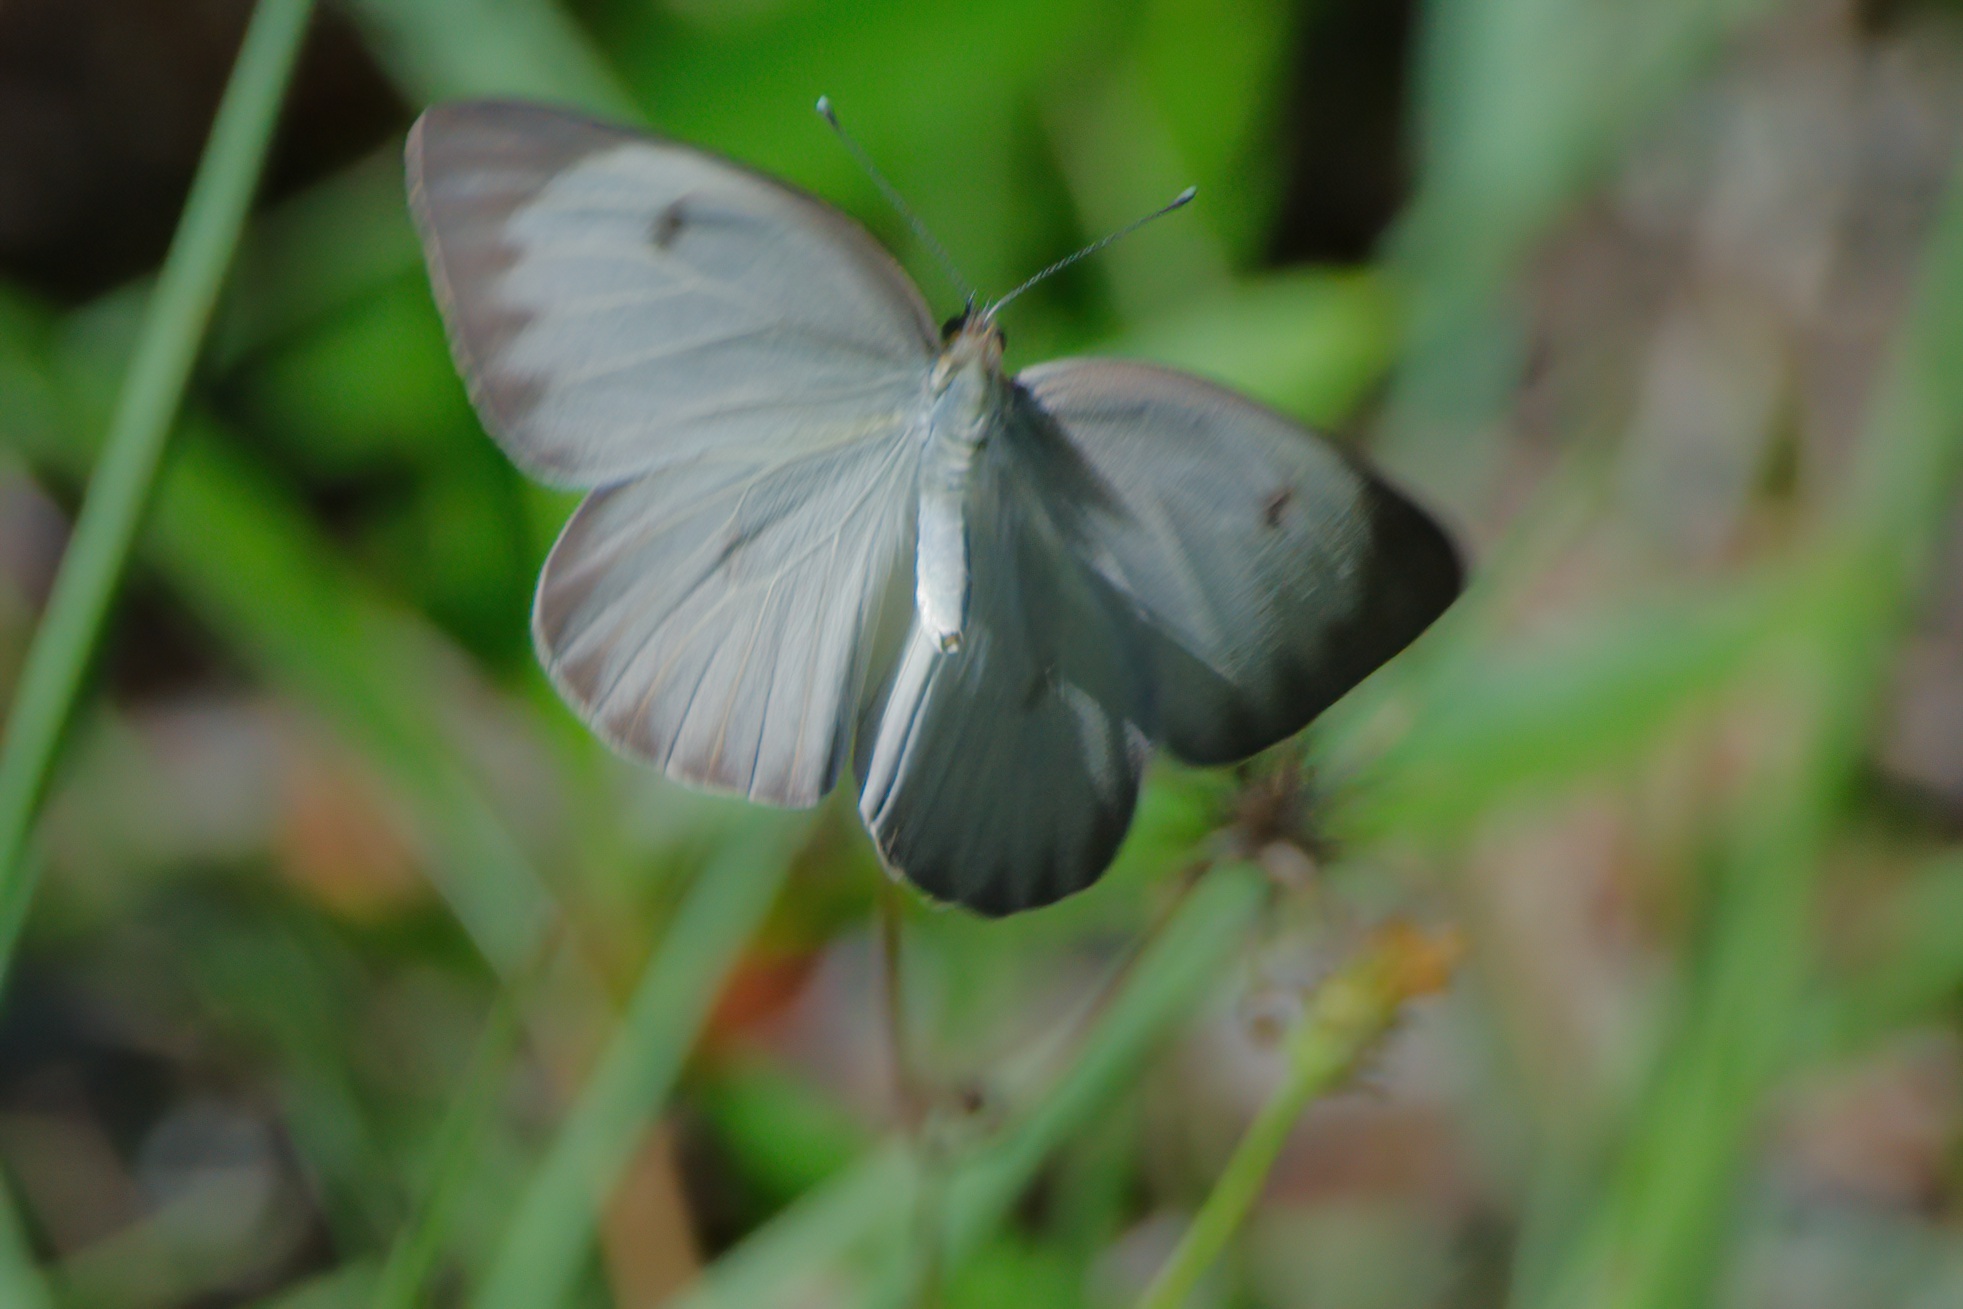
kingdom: Animalia
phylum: Arthropoda
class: Insecta
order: Lepidoptera
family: Pieridae
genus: Ascia
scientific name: Ascia monuste
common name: Great southern white
